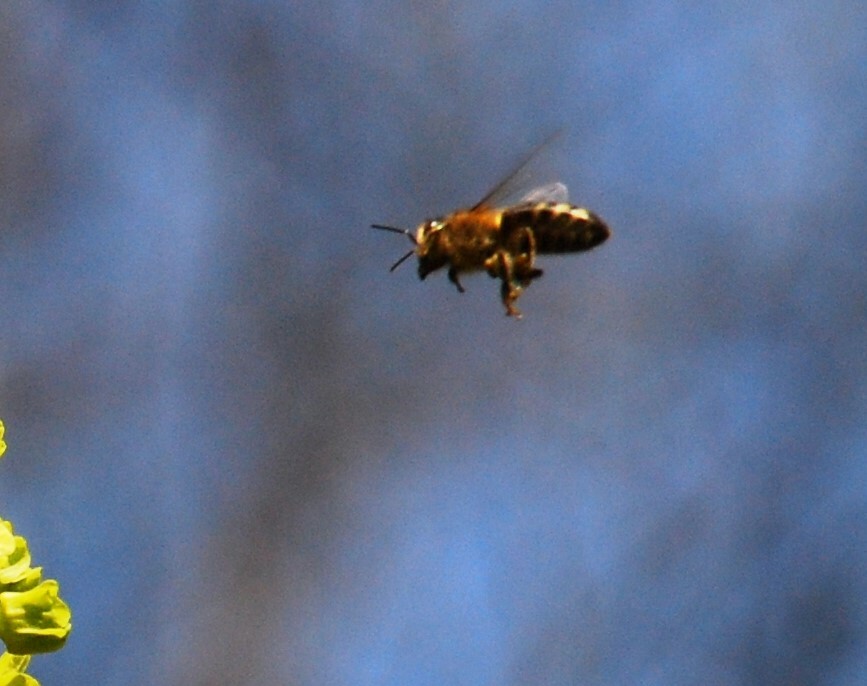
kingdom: Animalia
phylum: Arthropoda
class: Insecta
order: Hymenoptera
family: Apidae
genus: Apis
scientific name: Apis mellifera
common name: Honey bee
